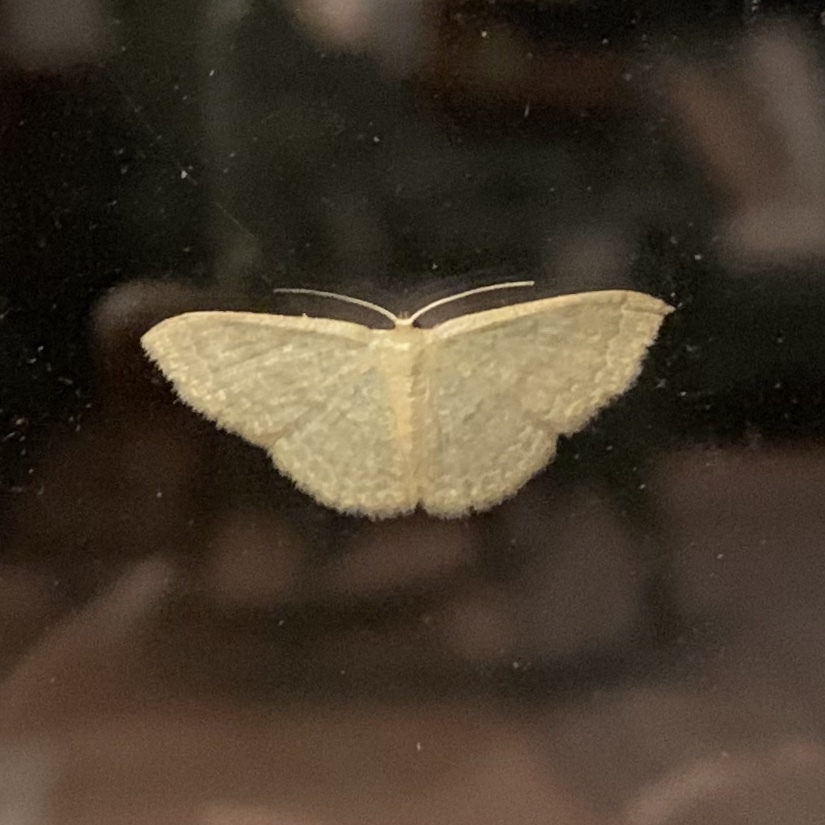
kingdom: Animalia
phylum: Arthropoda
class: Insecta
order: Lepidoptera
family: Geometridae
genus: Pleuroprucha
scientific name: Pleuroprucha insulsaria
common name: Common tan wave
